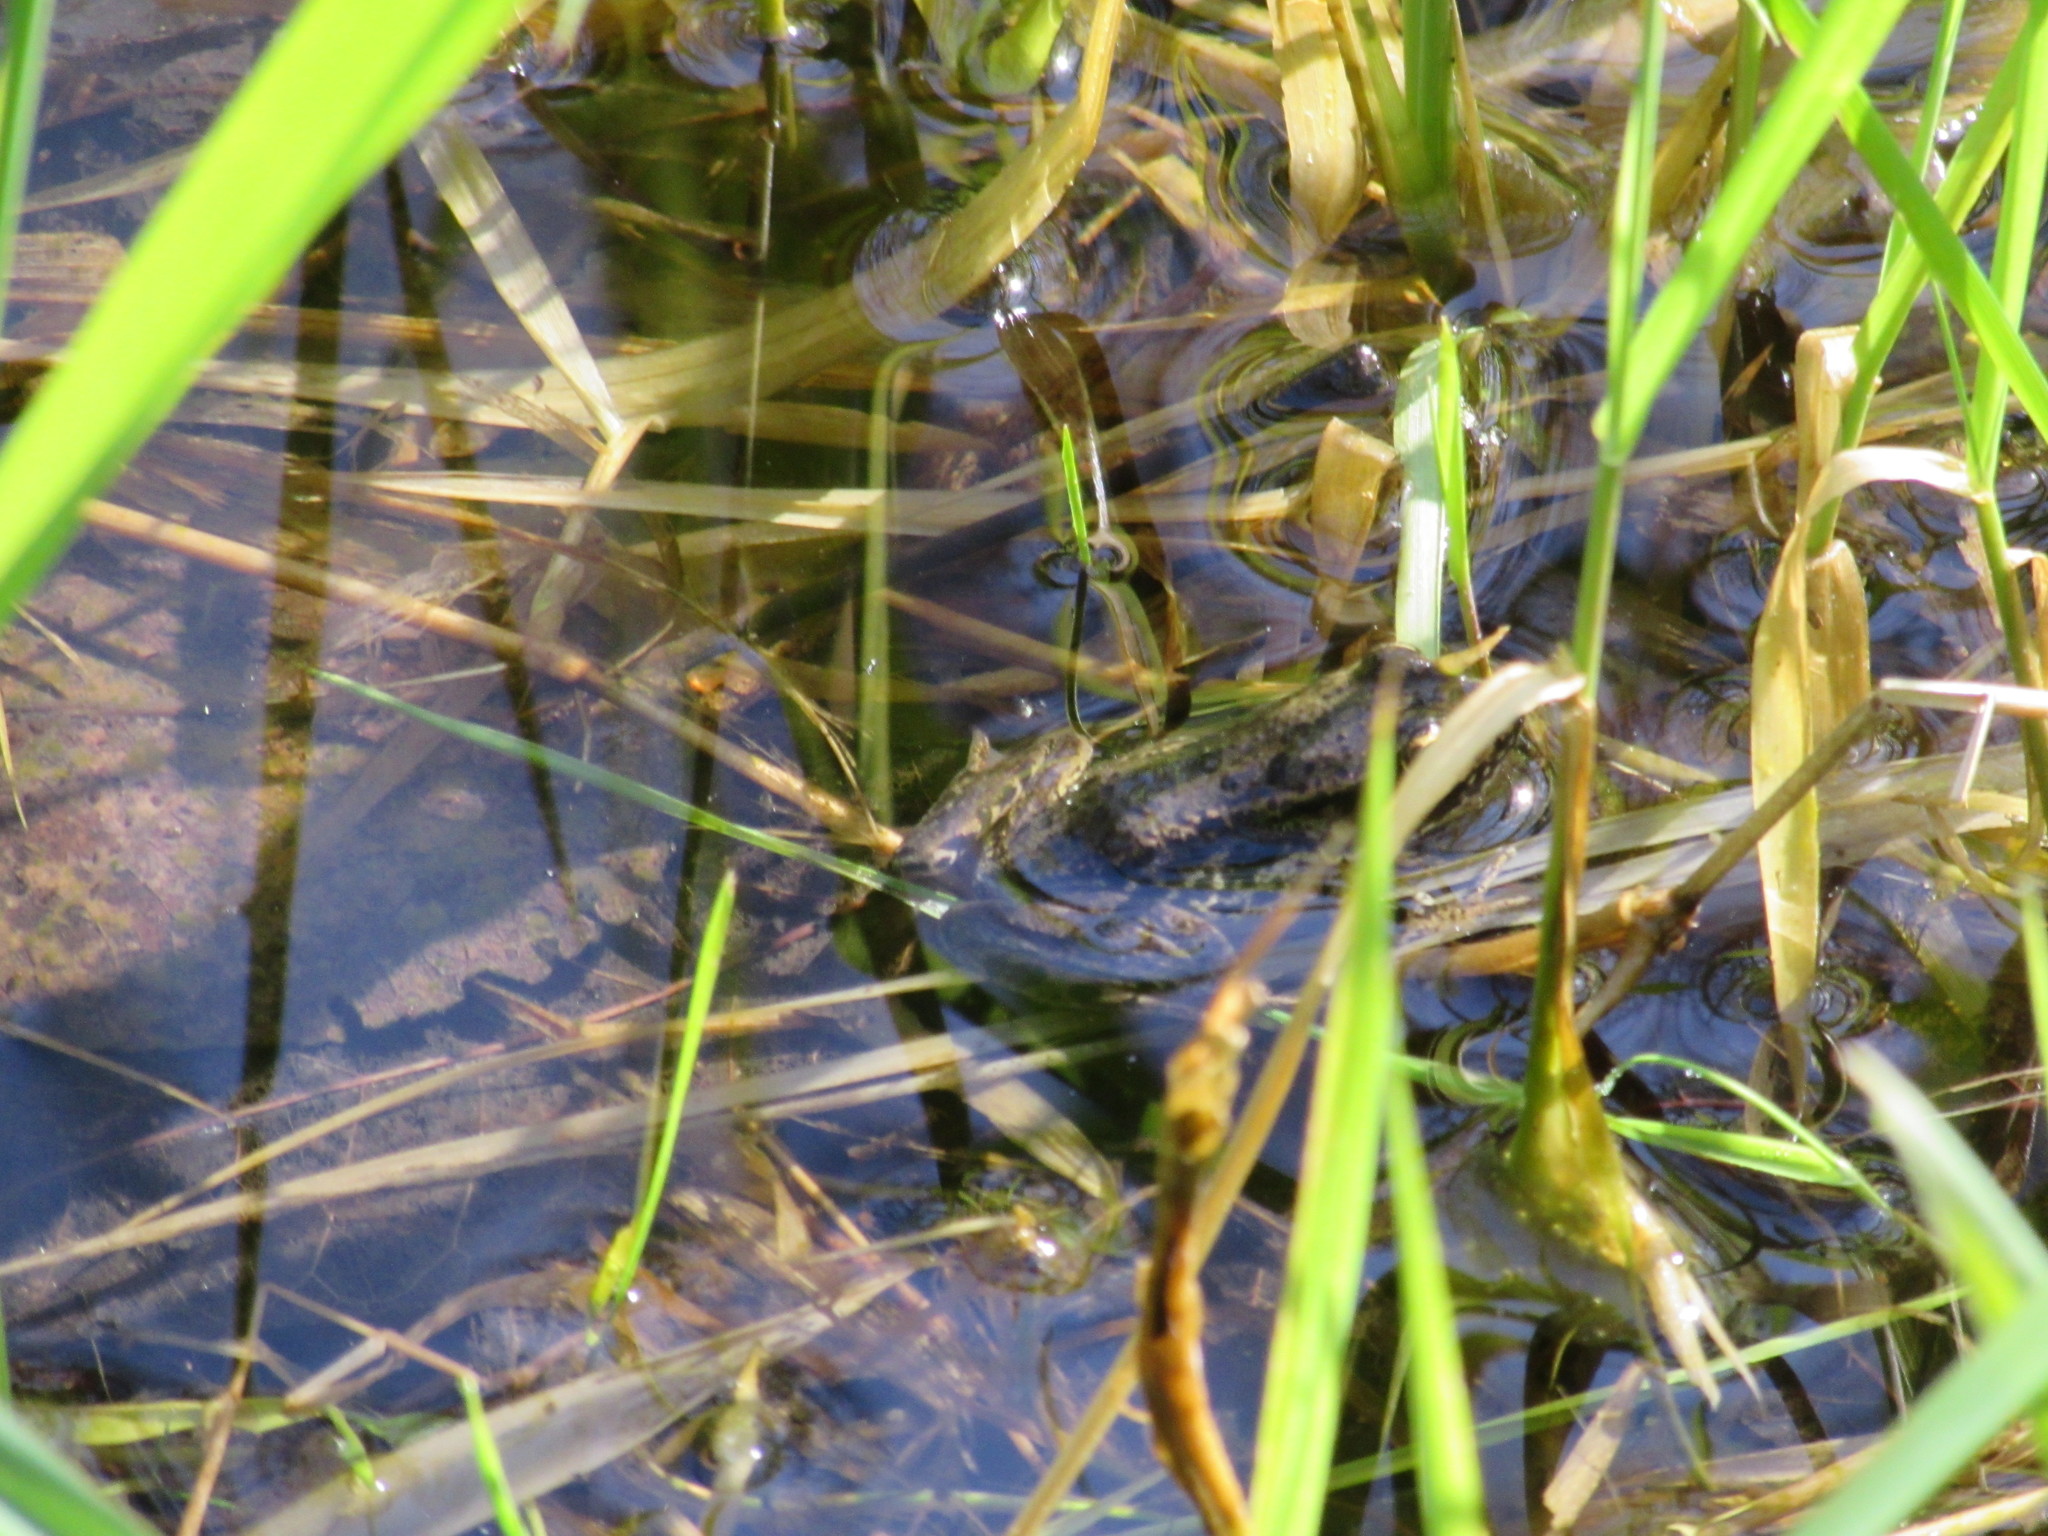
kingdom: Animalia
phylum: Chordata
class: Amphibia
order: Anura
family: Ranidae
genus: Rana
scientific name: Rana aurora
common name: Red-legged frog
